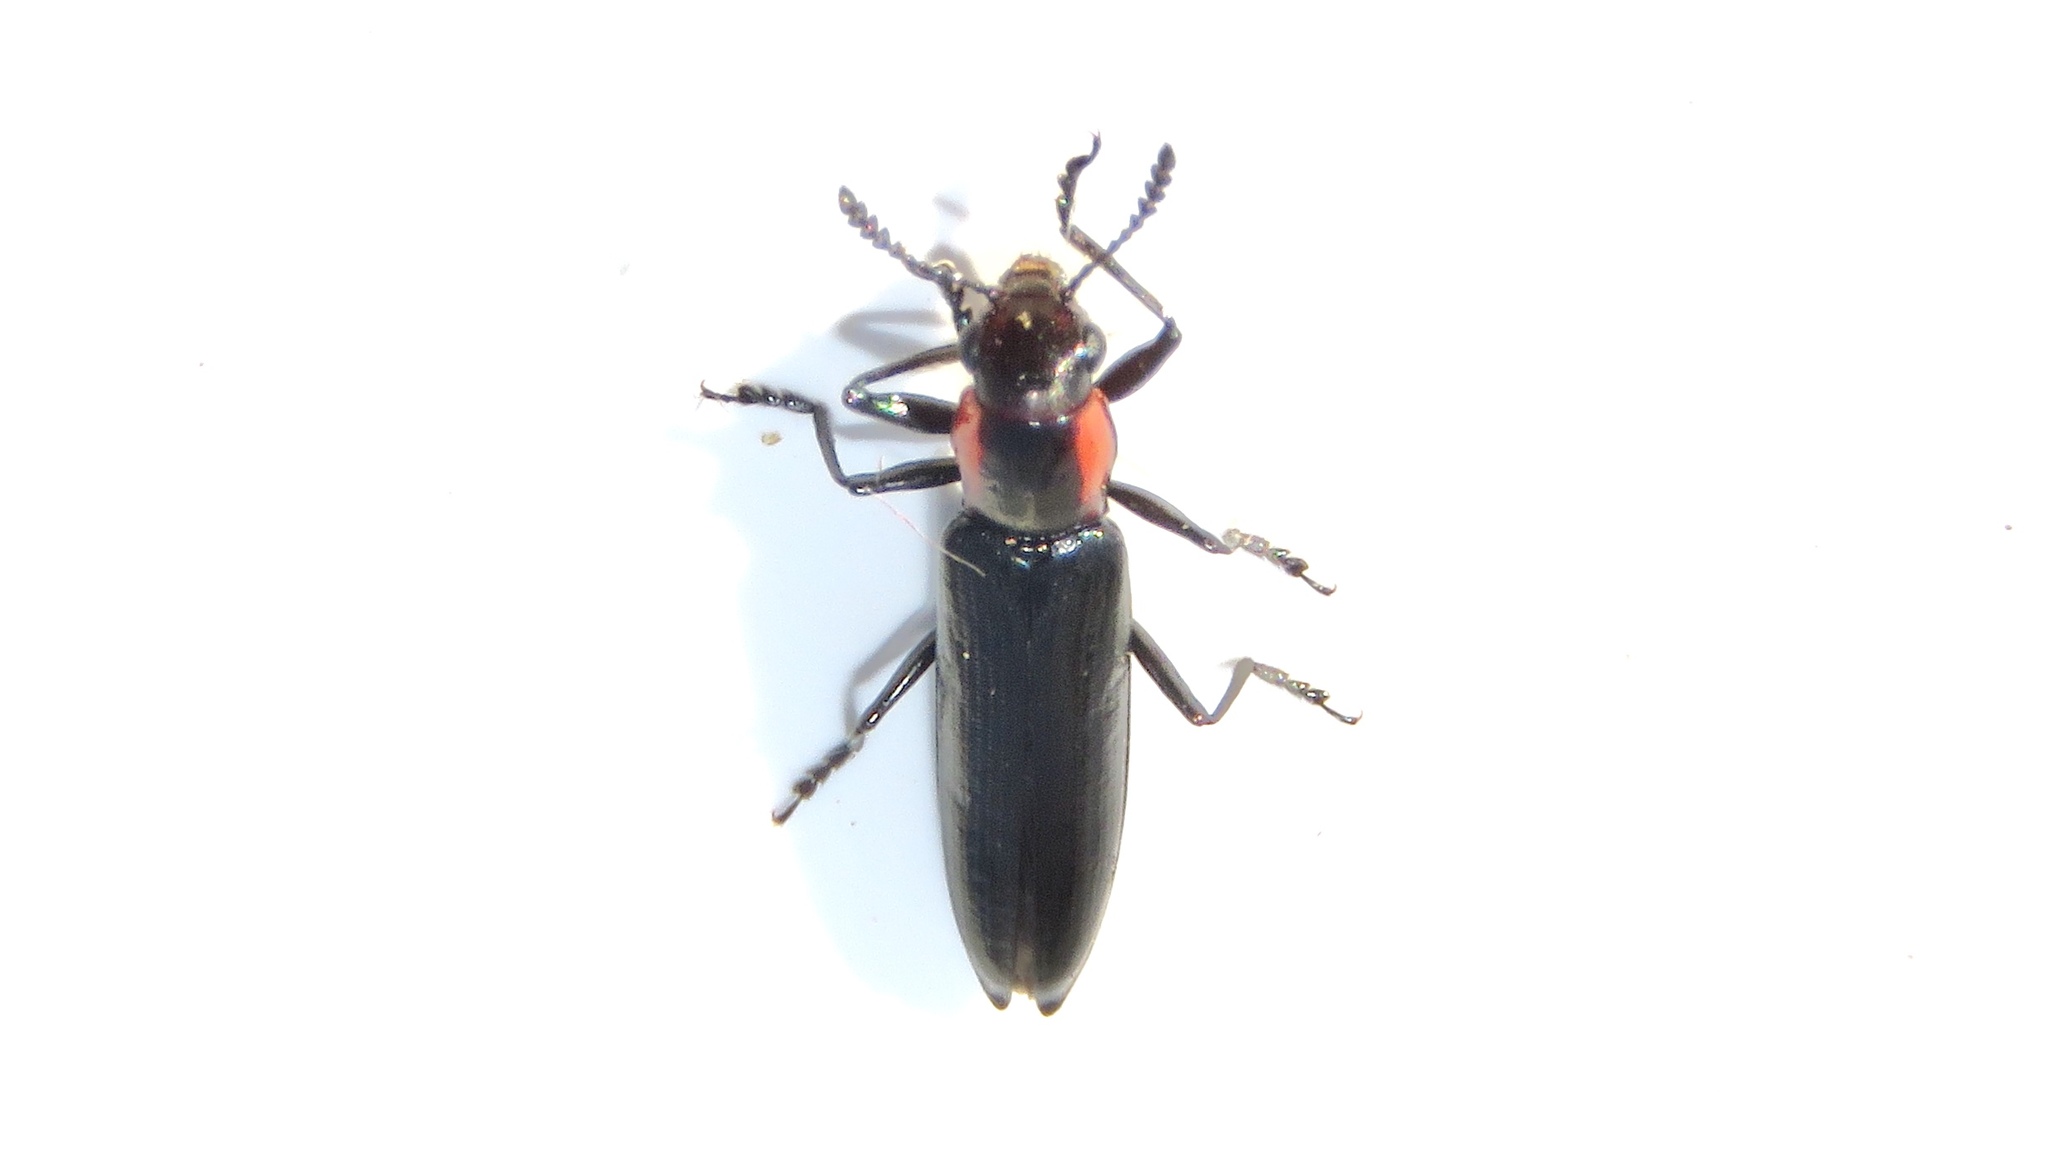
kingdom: Animalia
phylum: Arthropoda
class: Insecta
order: Coleoptera
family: Erotylidae
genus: Acropteroxys
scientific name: Acropteroxys gracilis
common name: Slender lizard beetle
